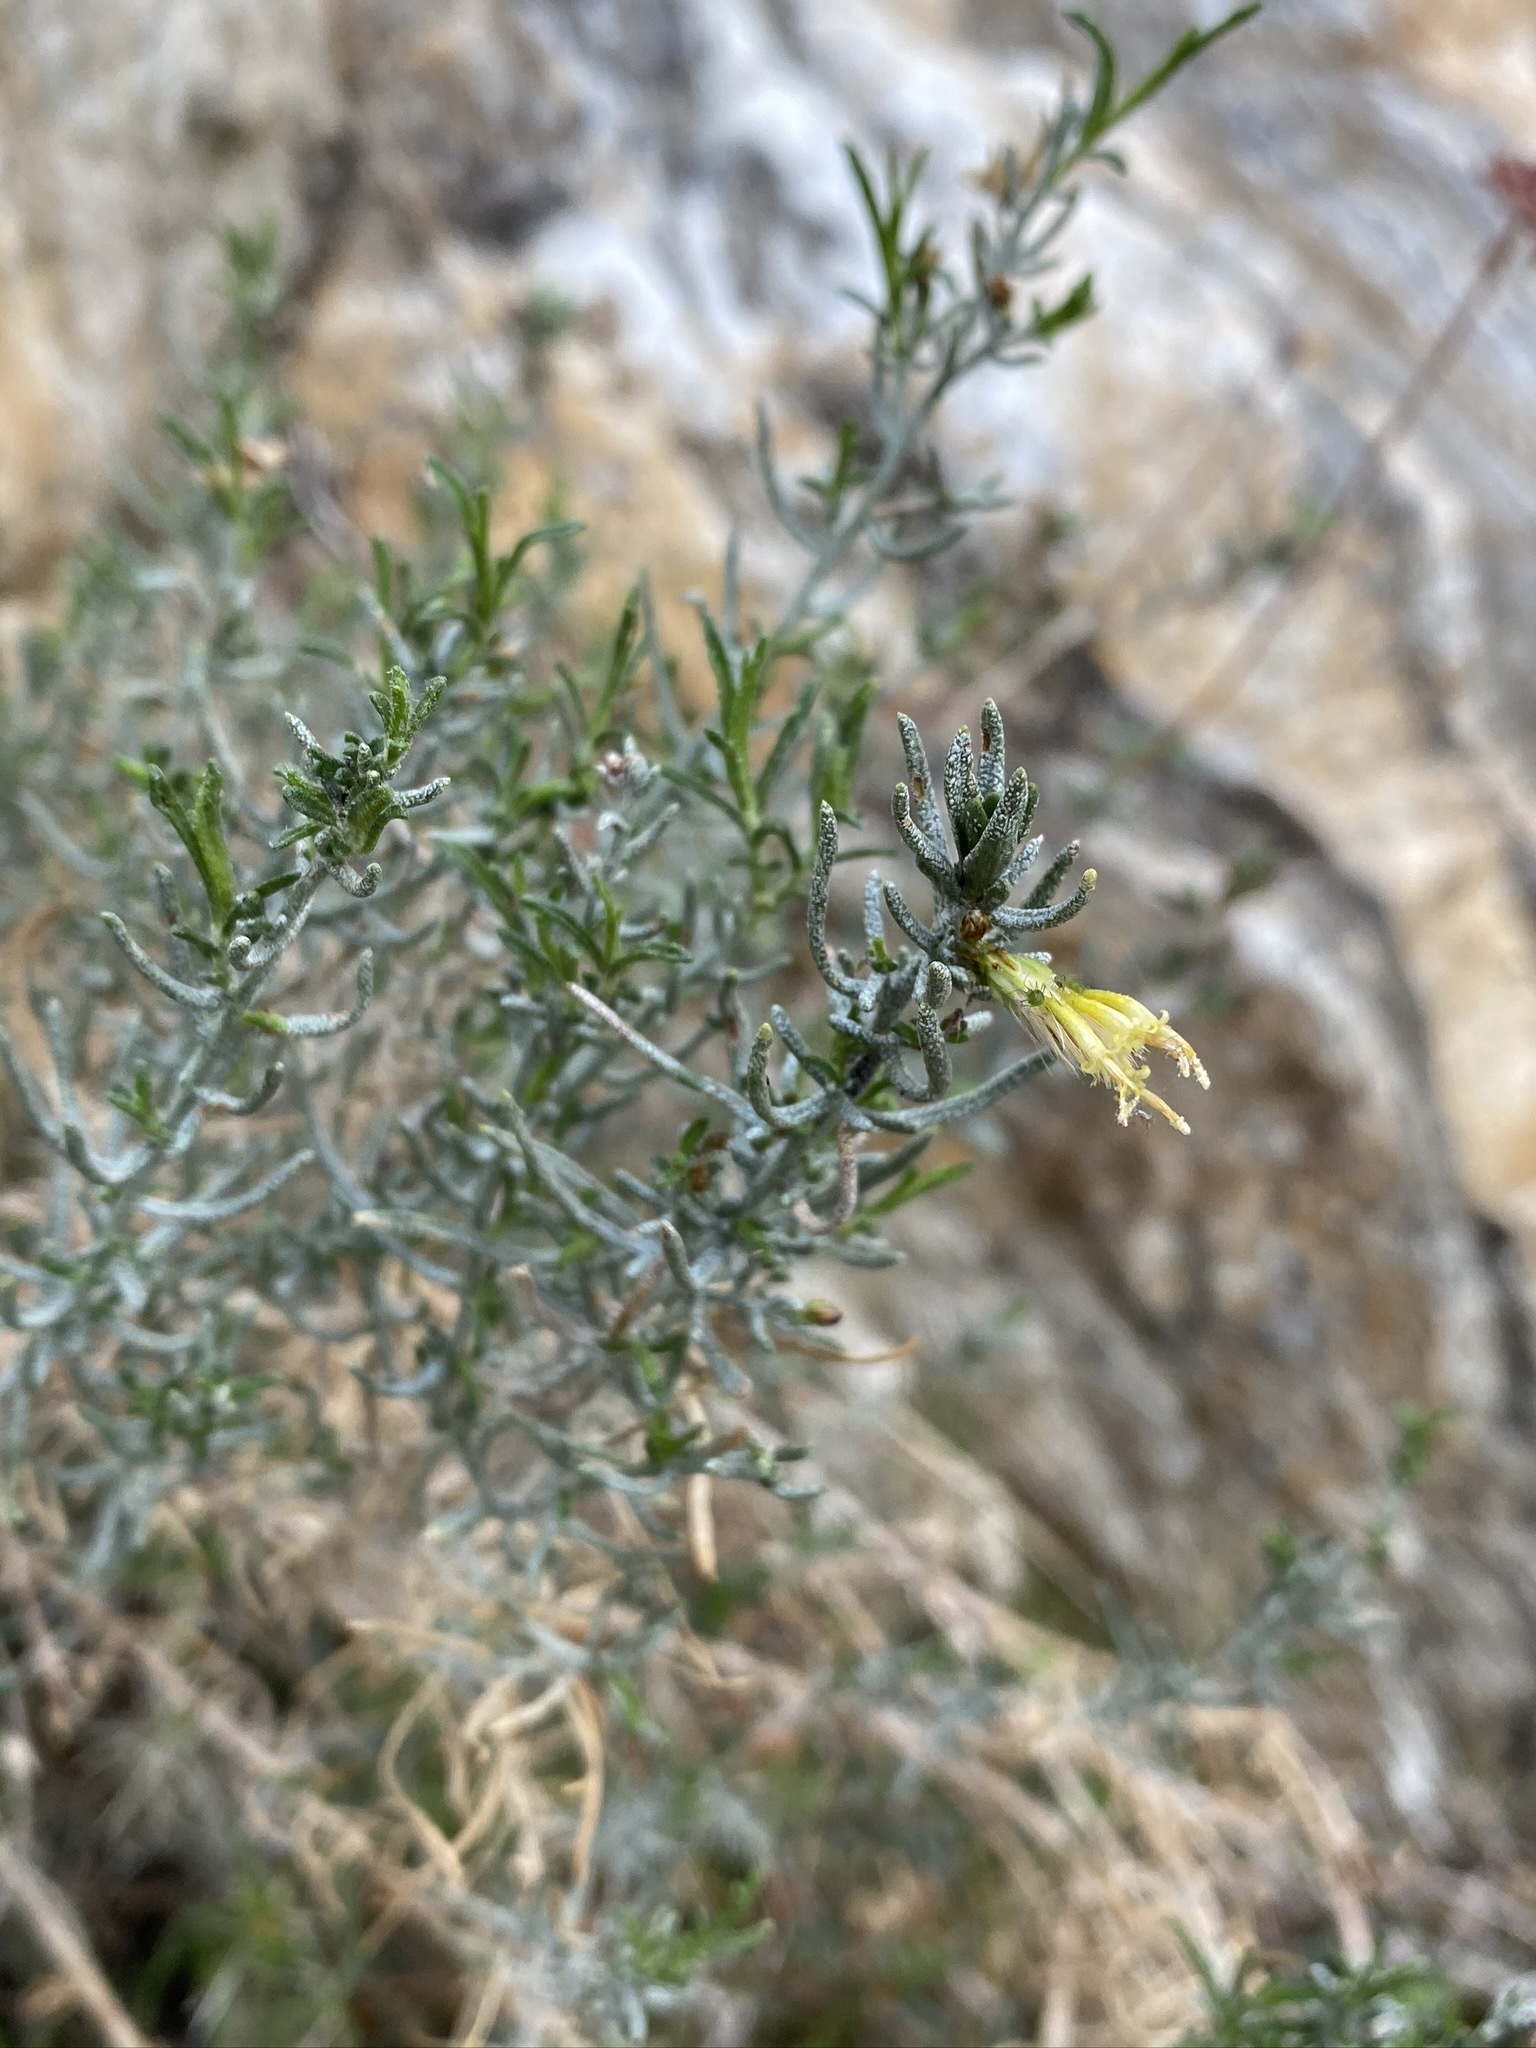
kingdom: Plantae
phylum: Tracheophyta
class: Magnoliopsida
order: Asterales
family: Asteraceae
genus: Ericameria
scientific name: Ericameria brachylepis
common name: Boundary goldenbush
